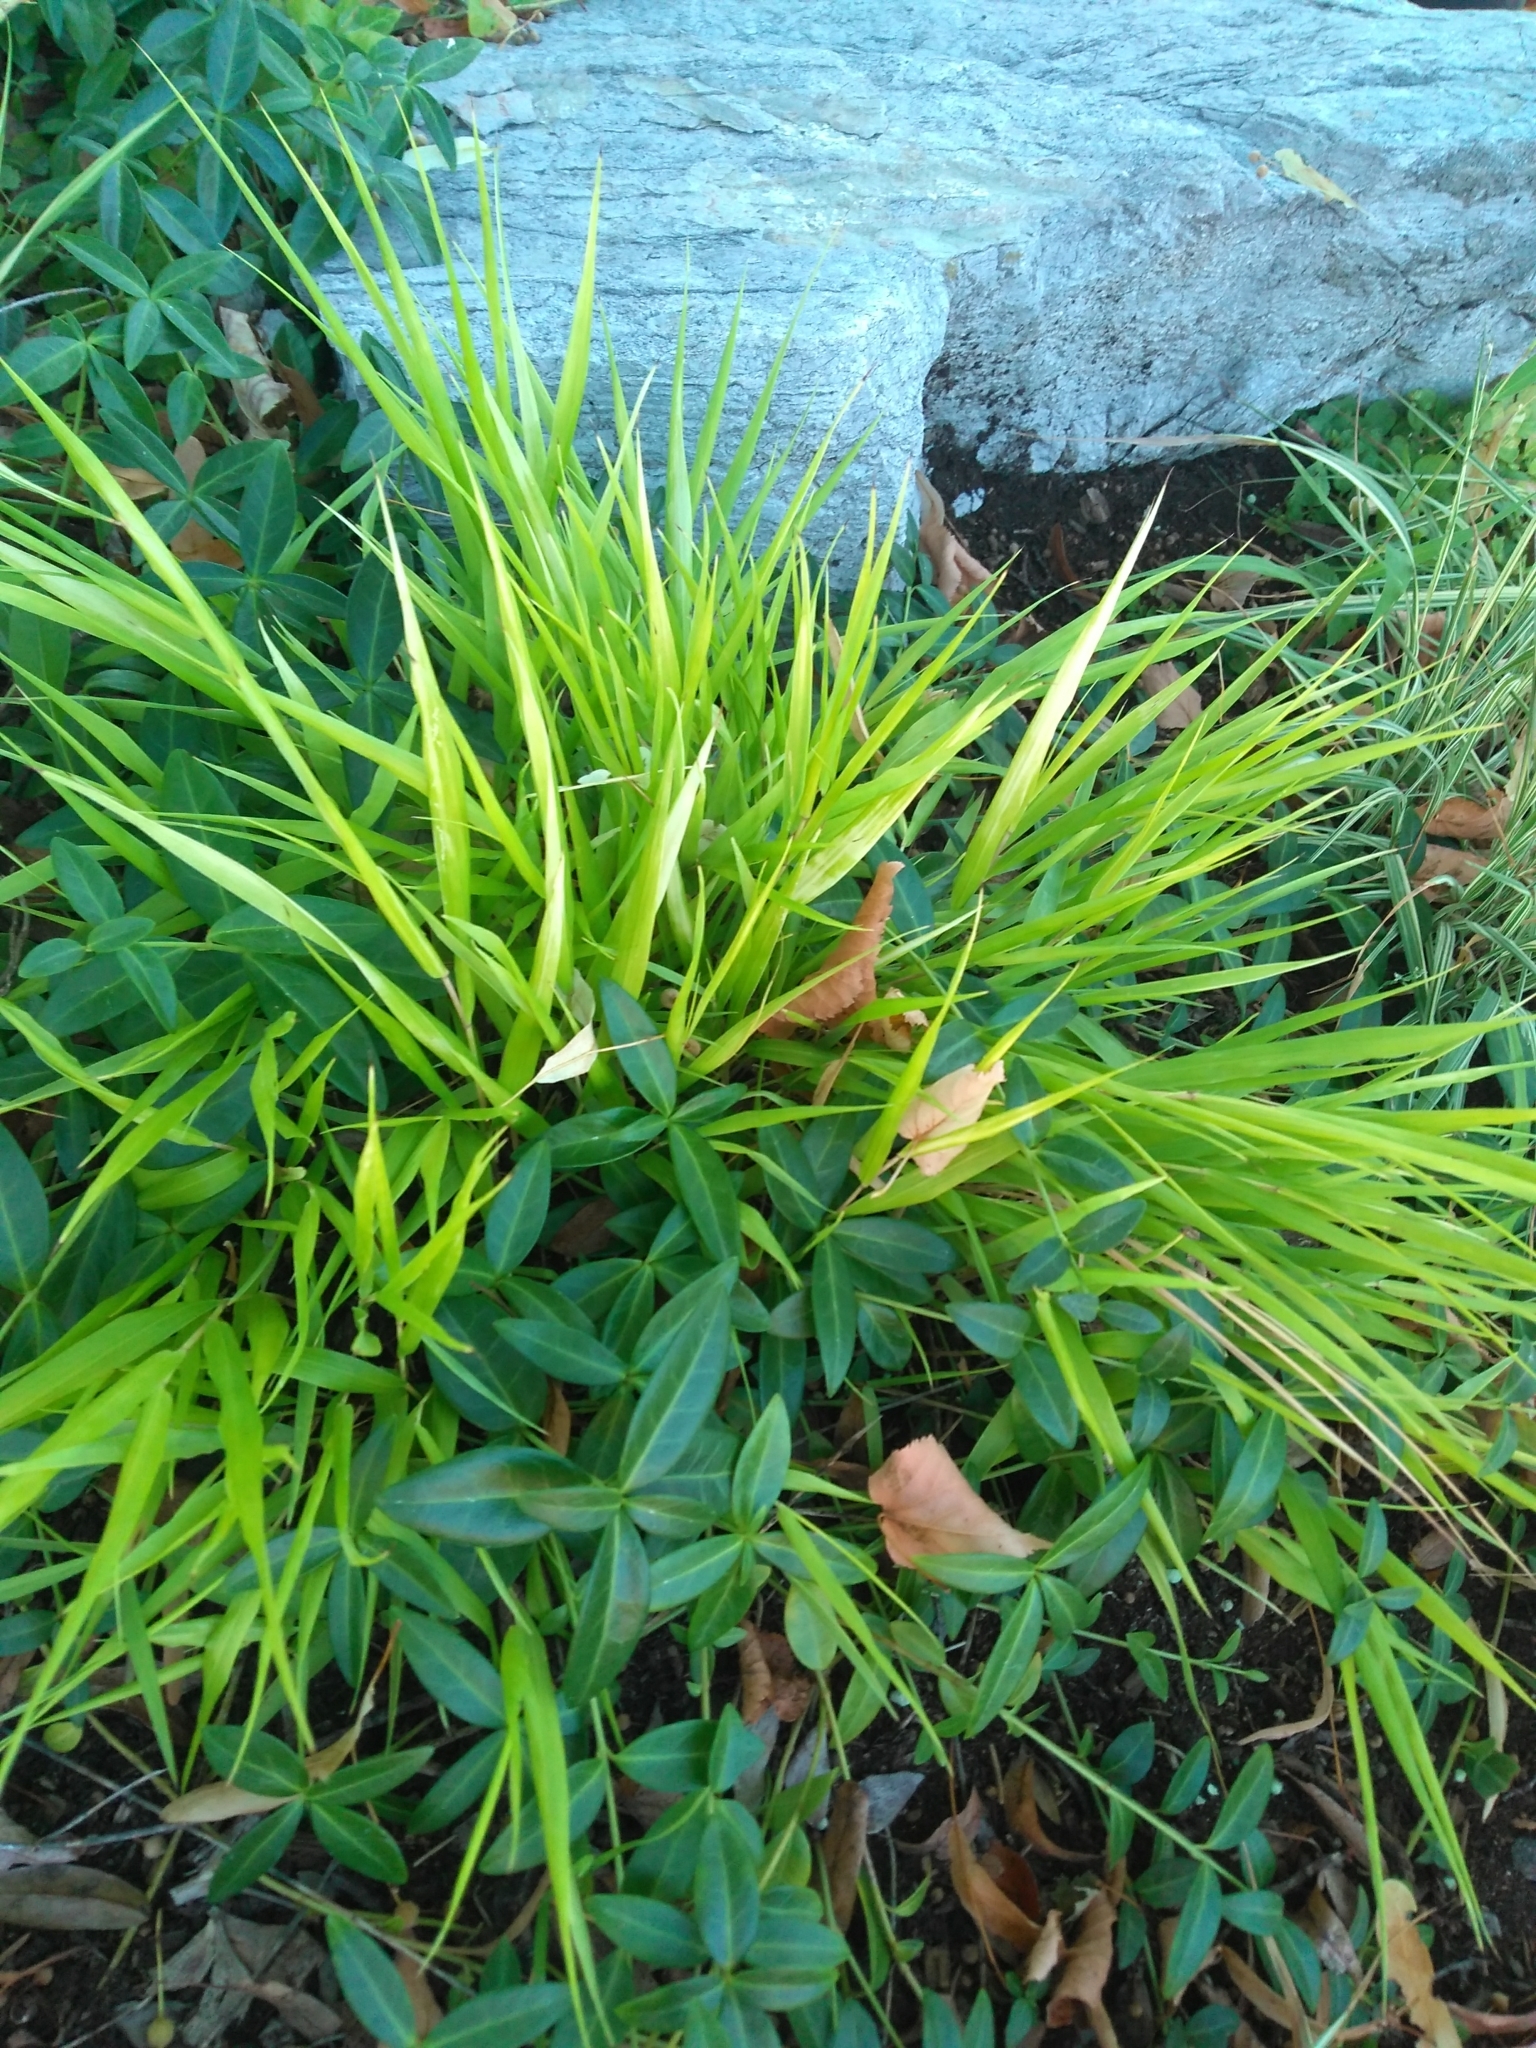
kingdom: Animalia
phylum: Arthropoda
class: Insecta
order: Hemiptera
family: Aphalaridae
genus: Pachypsylla
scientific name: Pachypsylla celtidismamma
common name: Hackberry nipplegall psyllid
